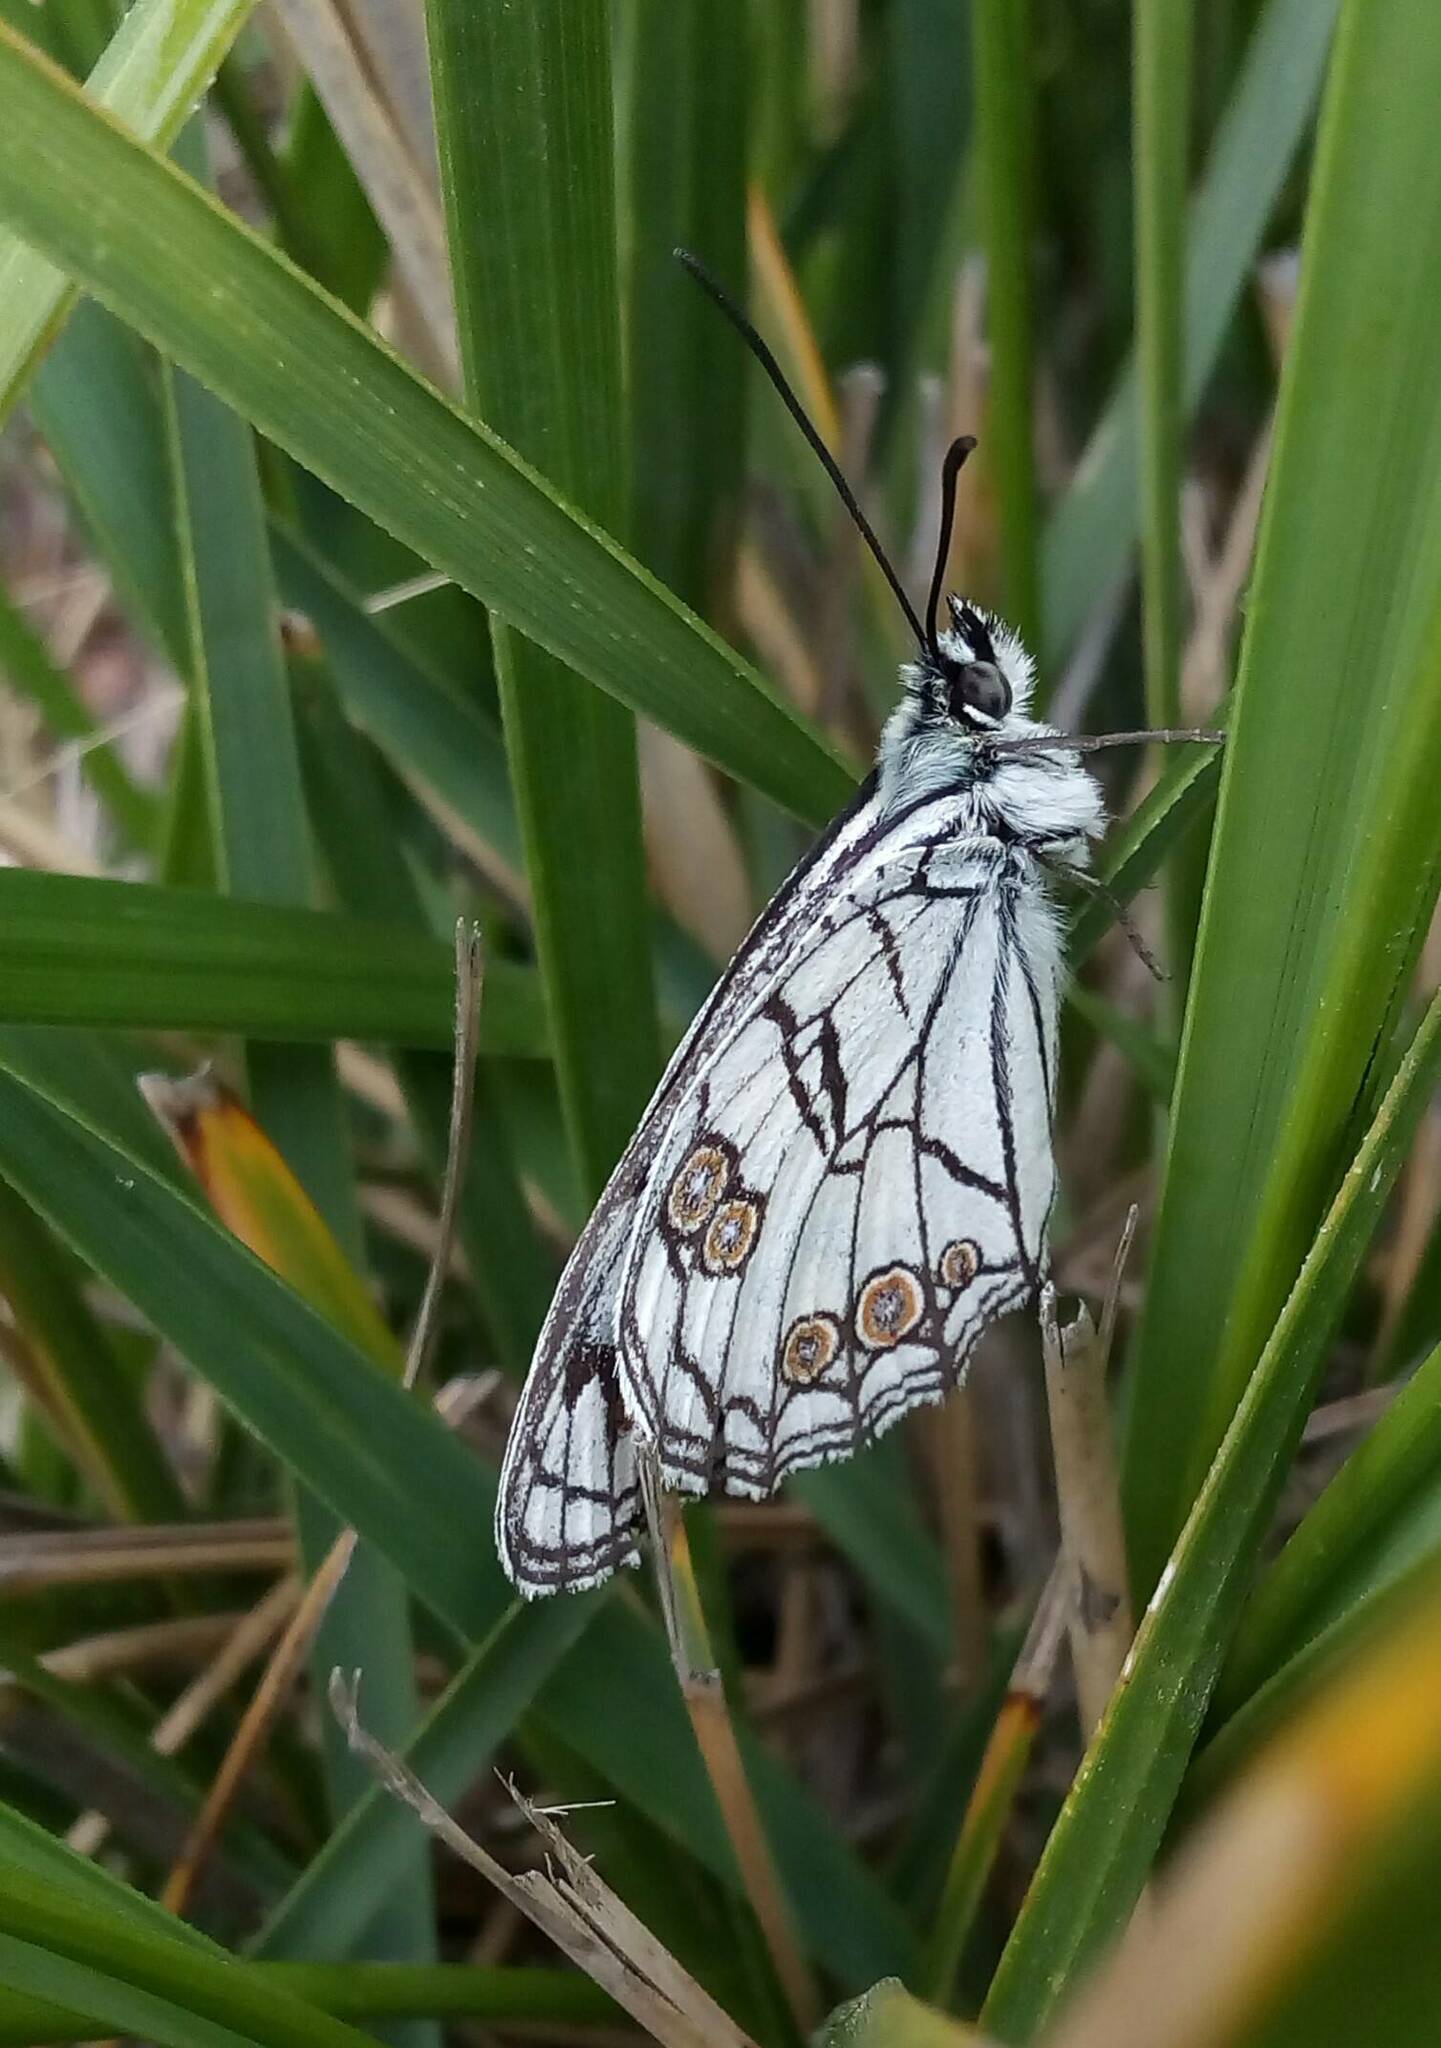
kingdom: Animalia
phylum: Arthropoda
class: Insecta
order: Lepidoptera
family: Nymphalidae
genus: Melanargia
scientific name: Melanargia ines
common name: Spanish marbled white
